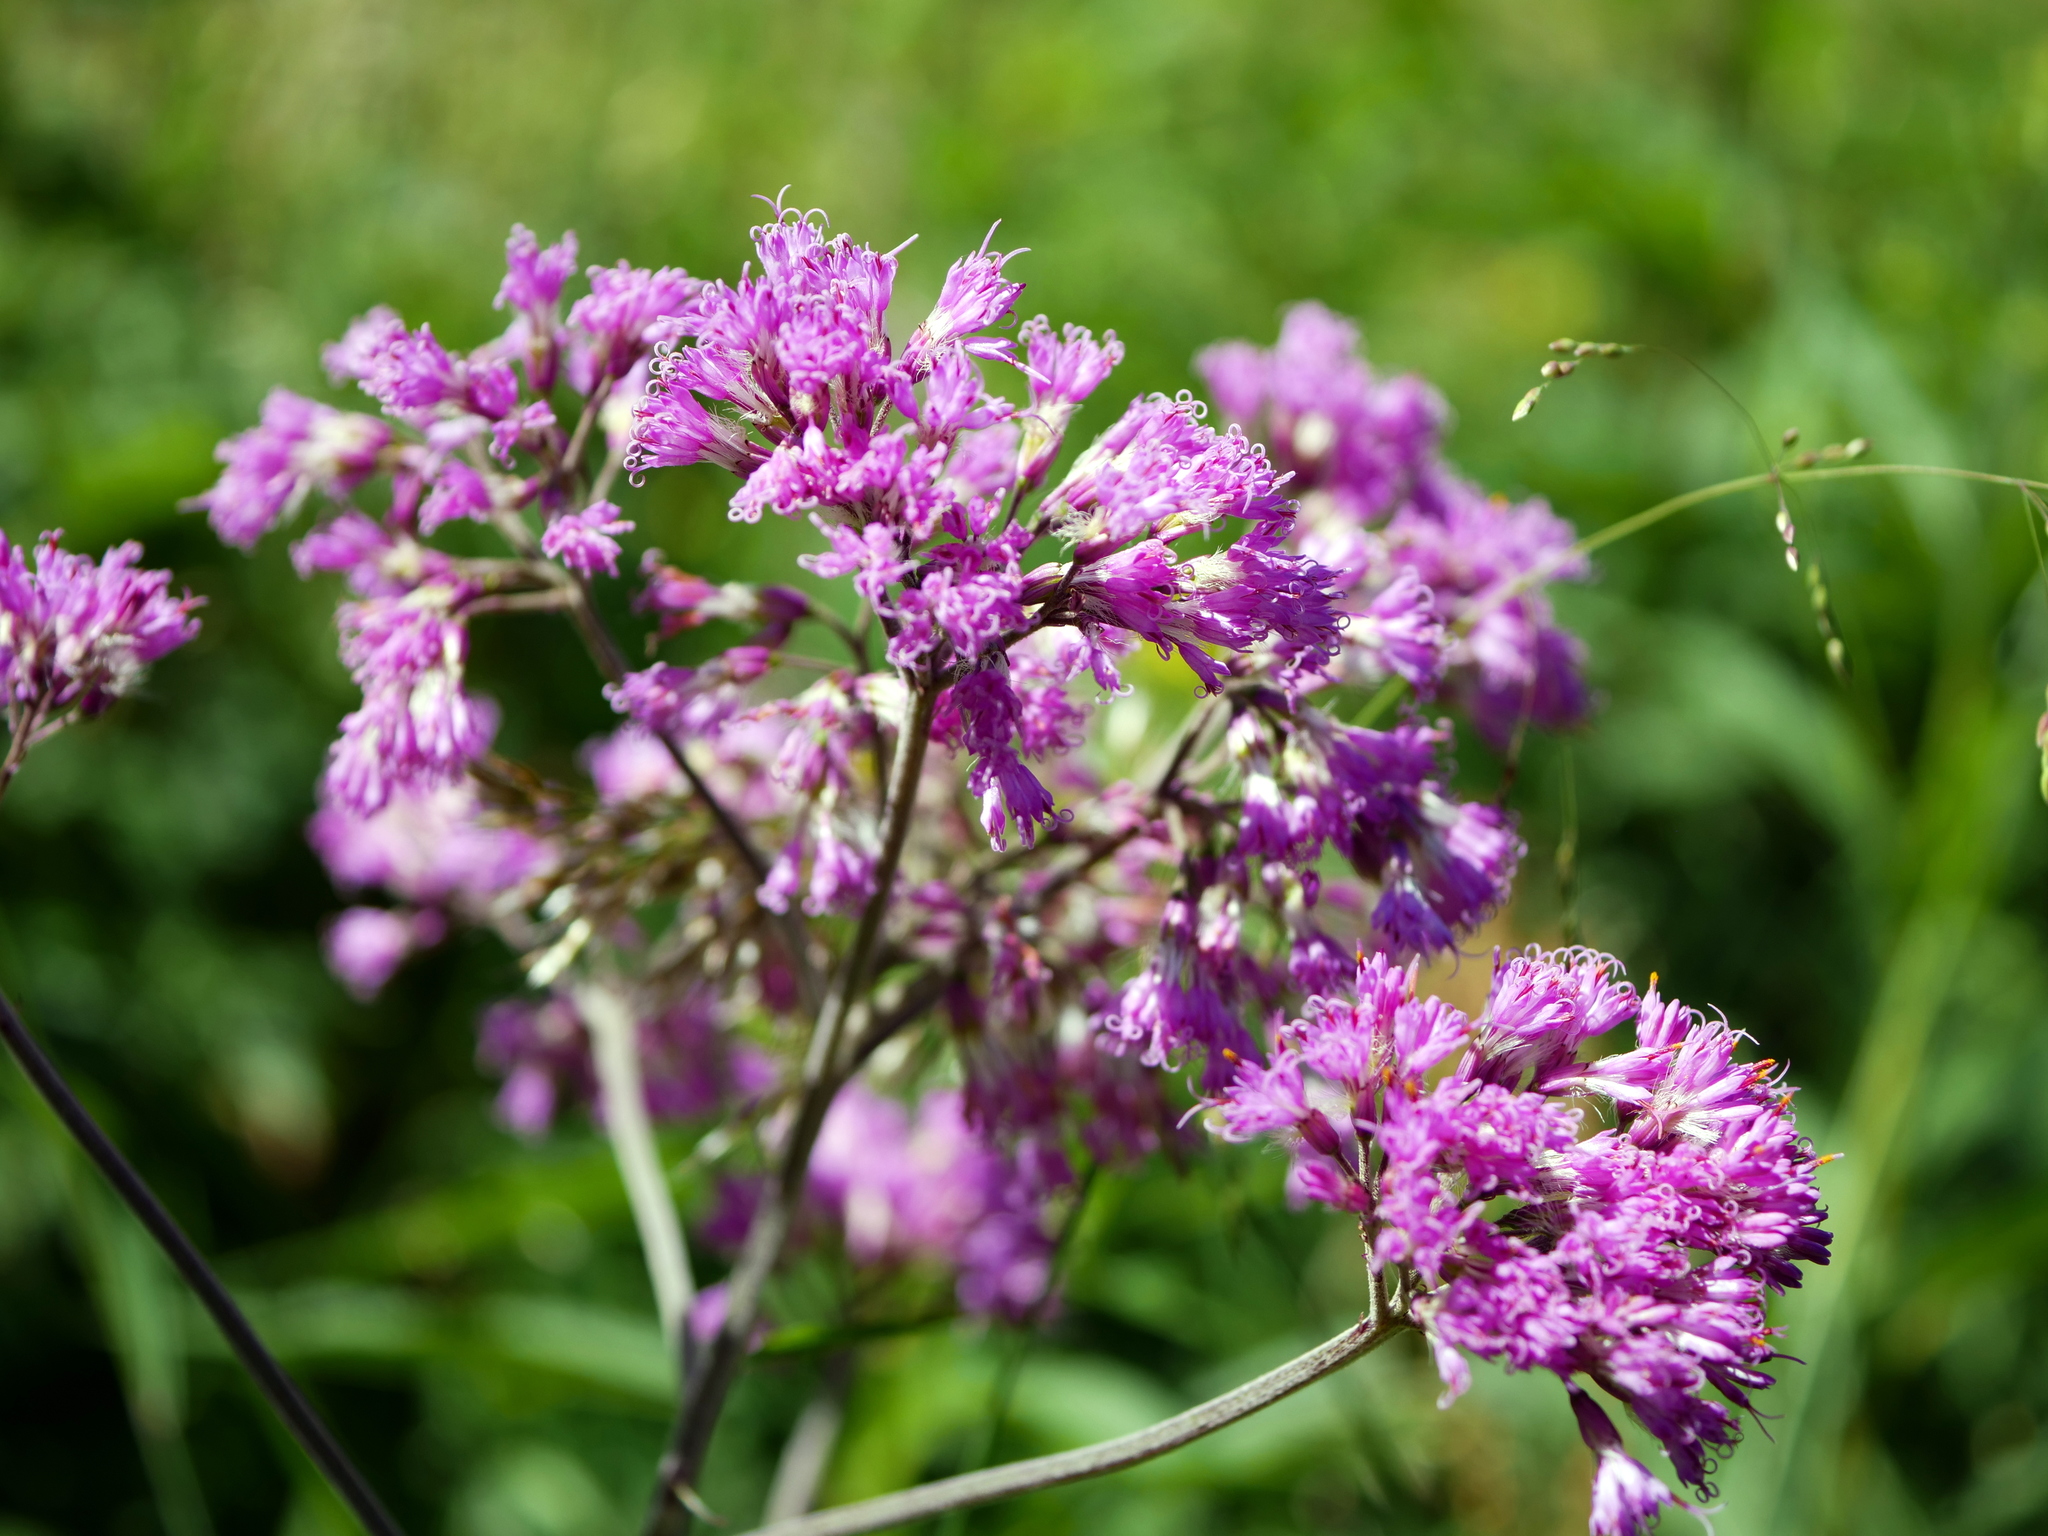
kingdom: Plantae
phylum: Tracheophyta
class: Magnoliopsida
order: Asterales
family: Asteraceae
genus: Adenostyles
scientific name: Adenostyles alliariae
